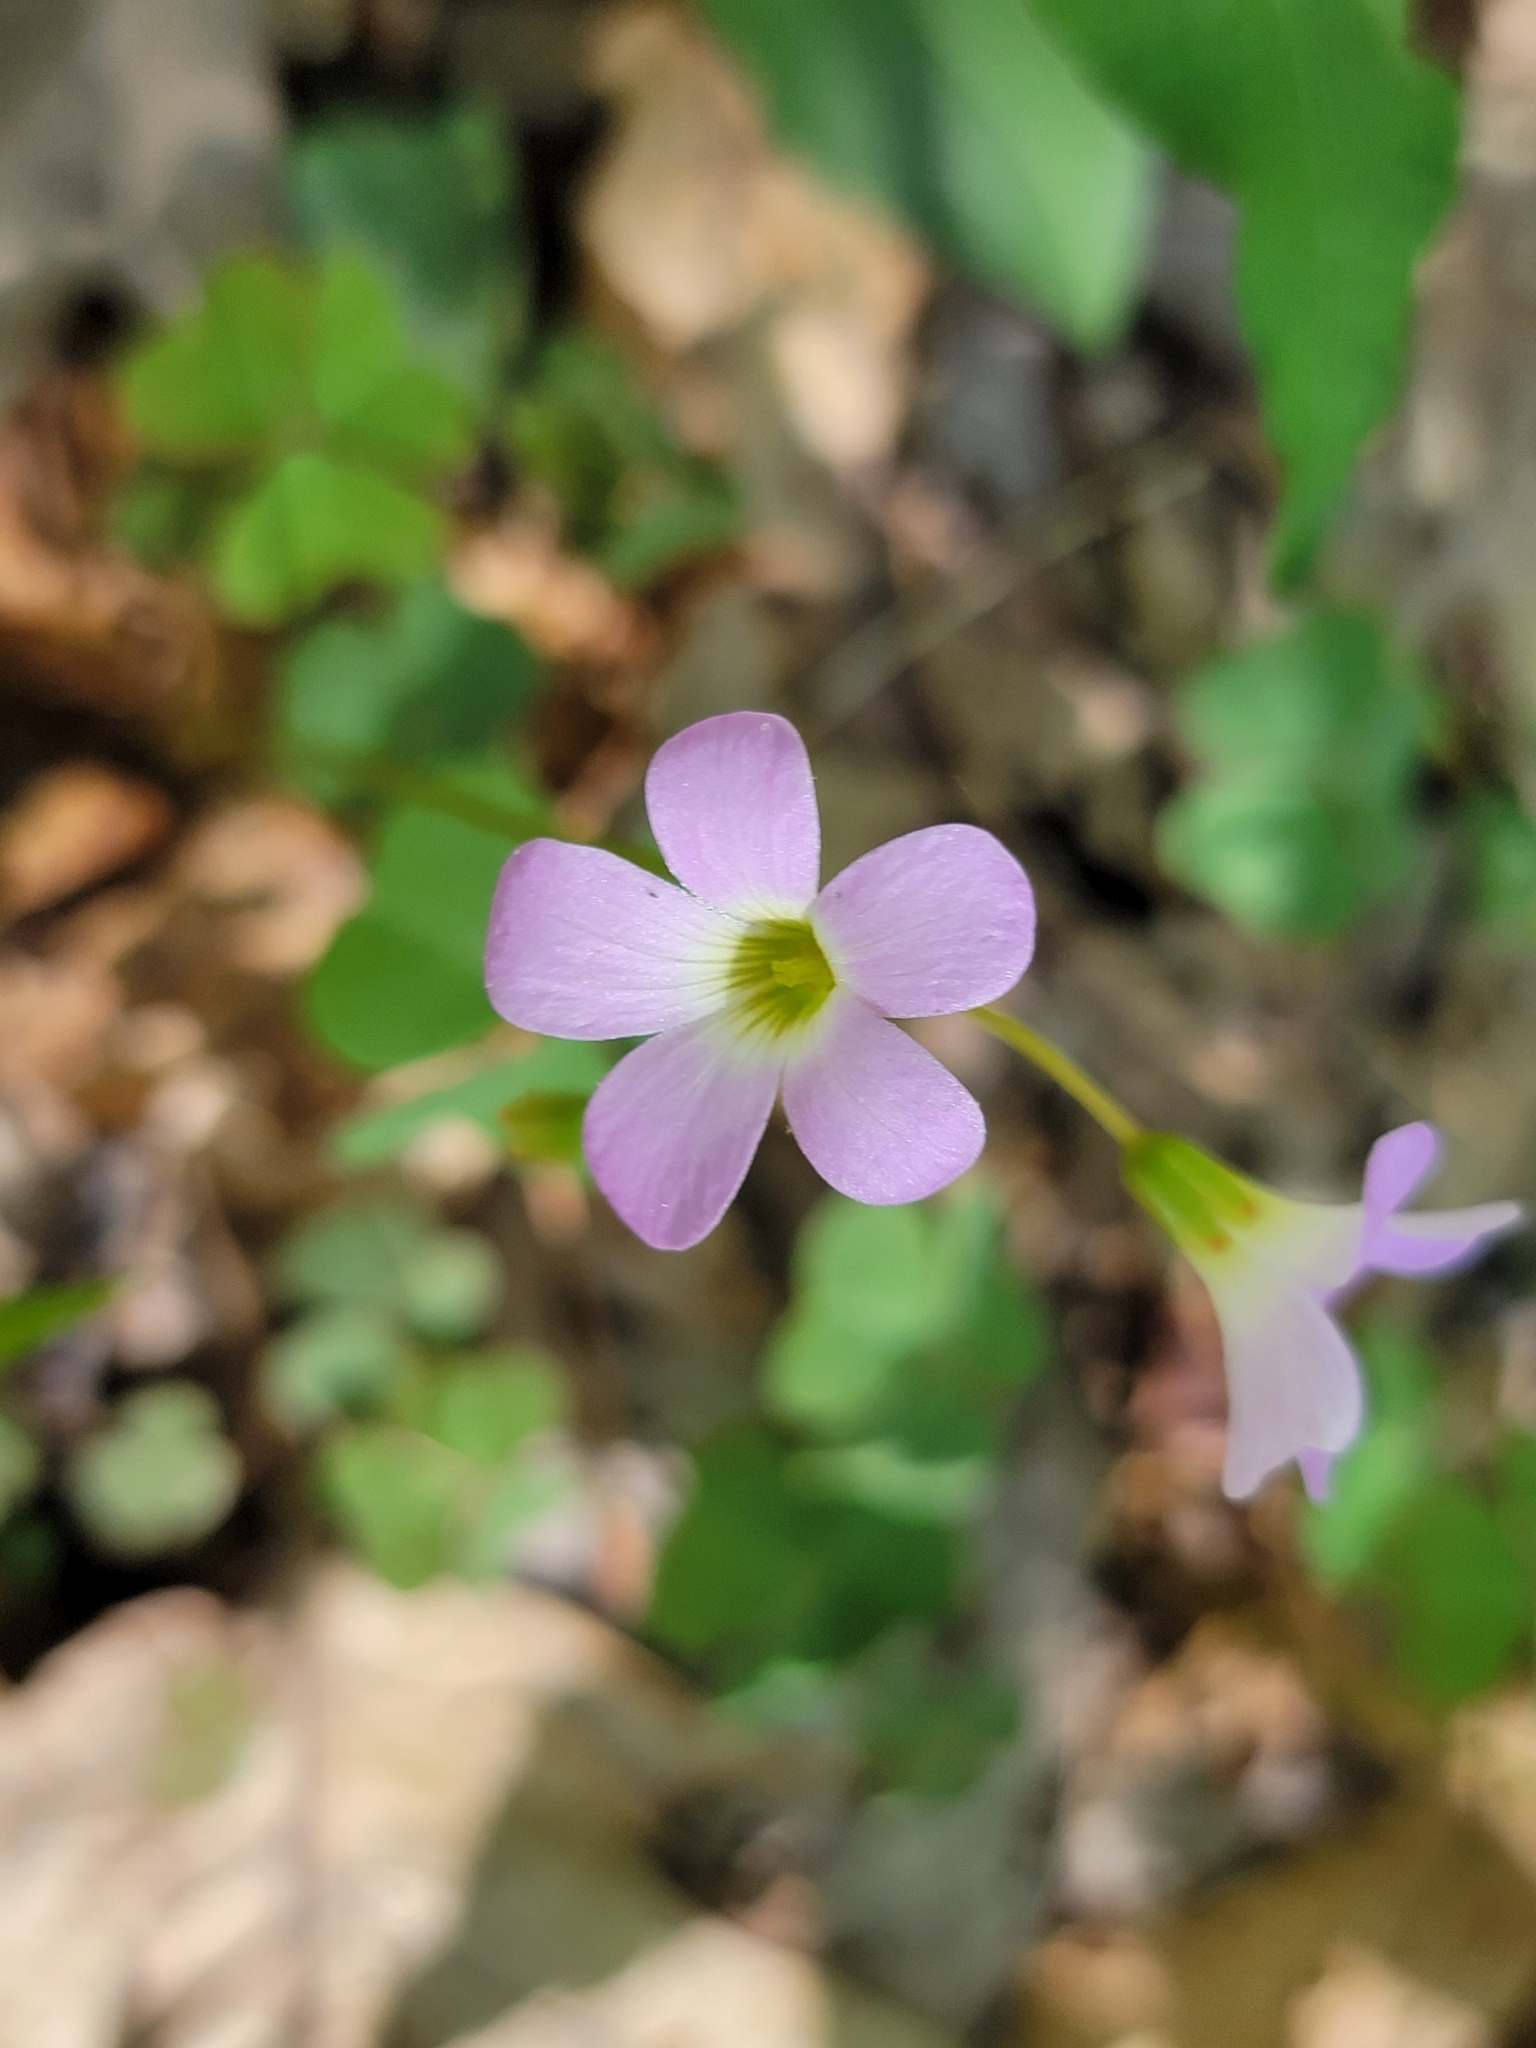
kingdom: Plantae
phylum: Tracheophyta
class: Magnoliopsida
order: Oxalidales
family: Oxalidaceae
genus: Oxalis
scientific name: Oxalis violacea
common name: Violet wood-sorrel
